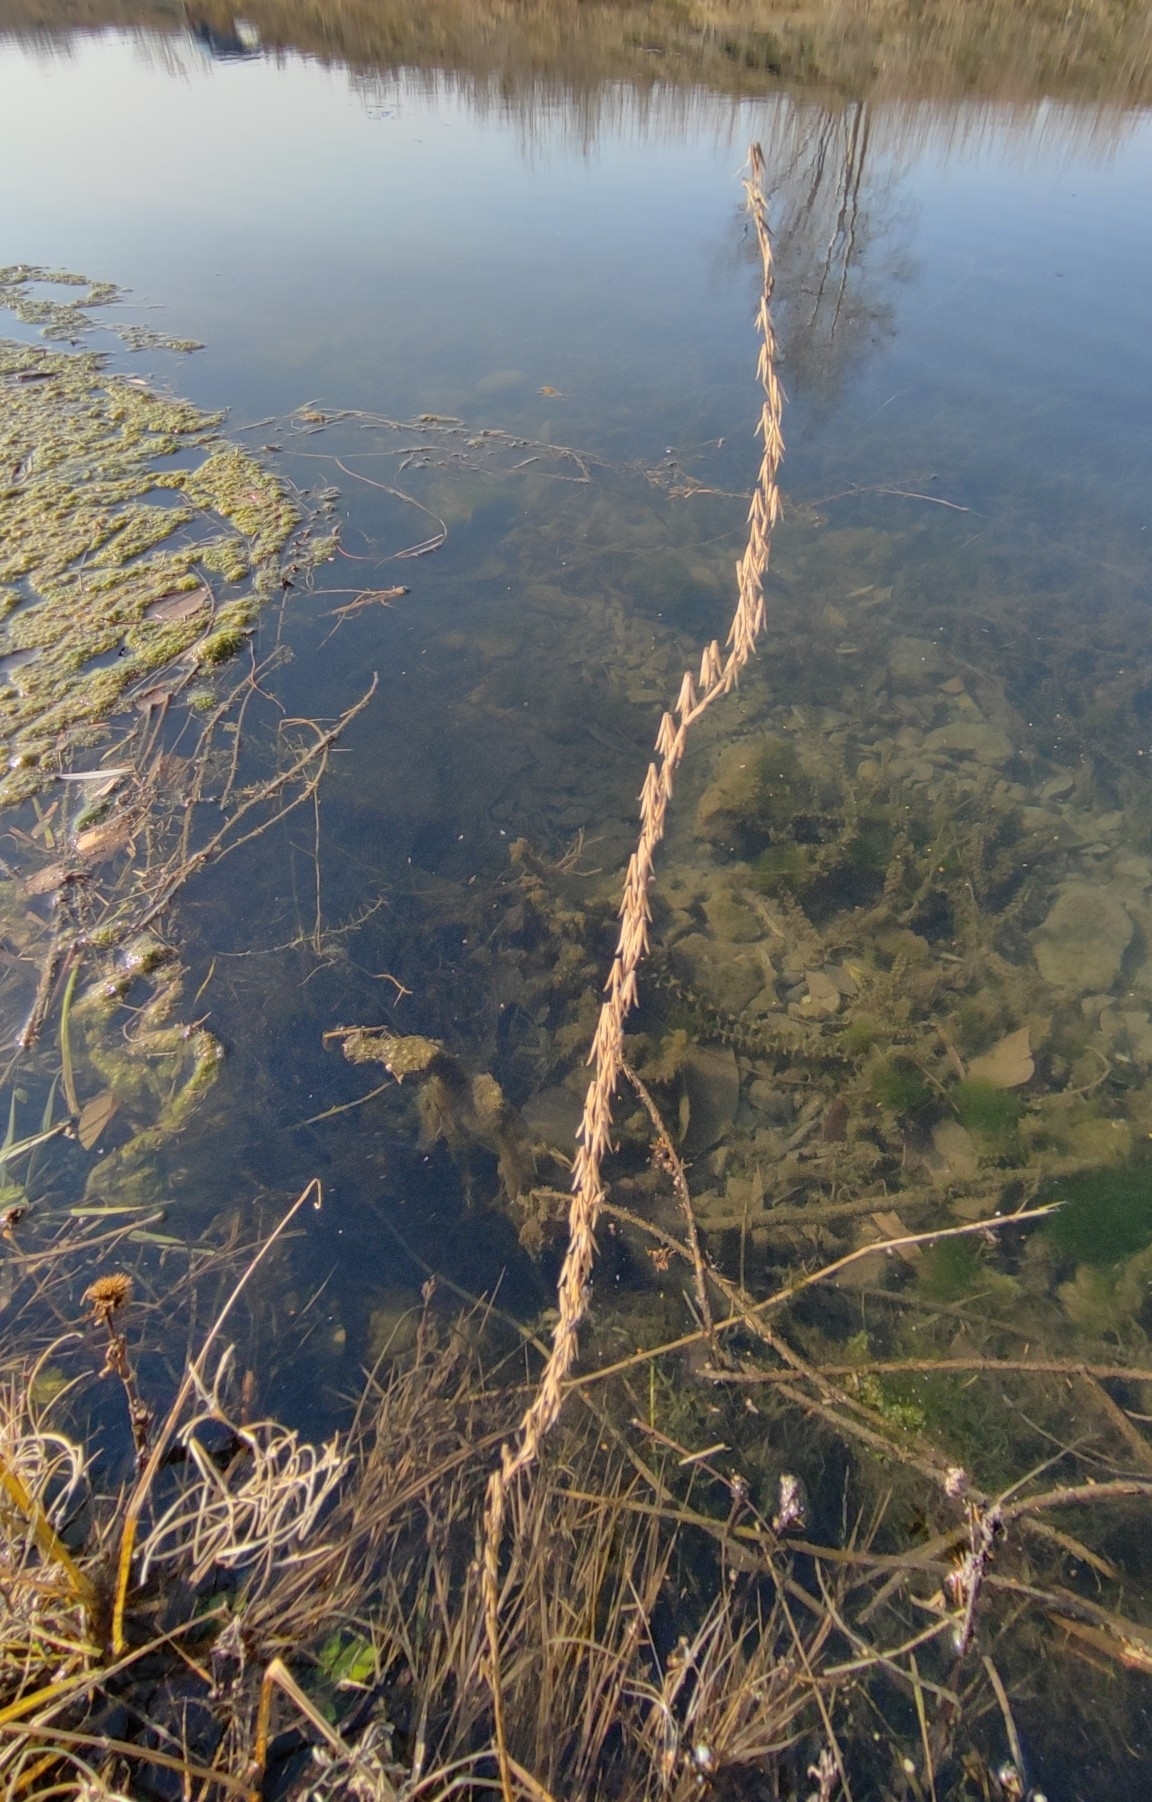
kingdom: Plantae
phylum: Tracheophyta
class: Liliopsida
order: Alismatales
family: Juncaginaceae
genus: Triglochin
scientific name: Triglochin palustris
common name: Marsh arrowgrass
